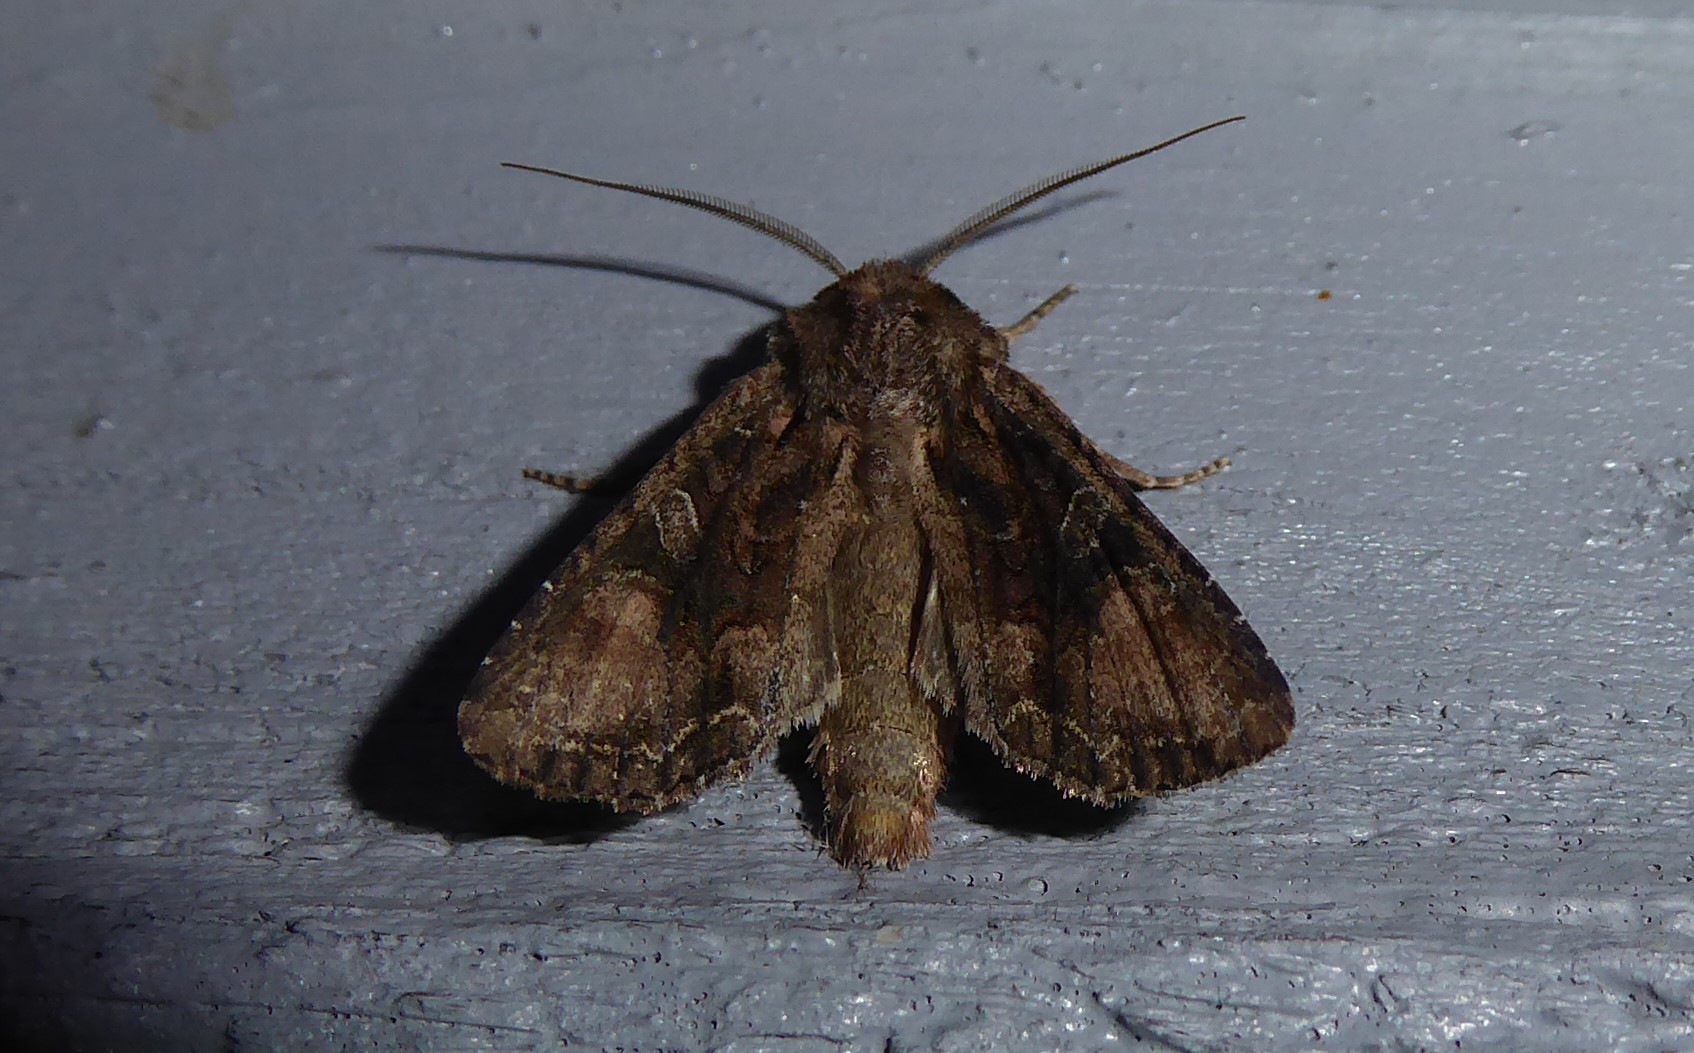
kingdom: Animalia
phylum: Arthropoda
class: Insecta
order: Lepidoptera
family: Noctuidae
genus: Ichneutica
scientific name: Ichneutica mutans
